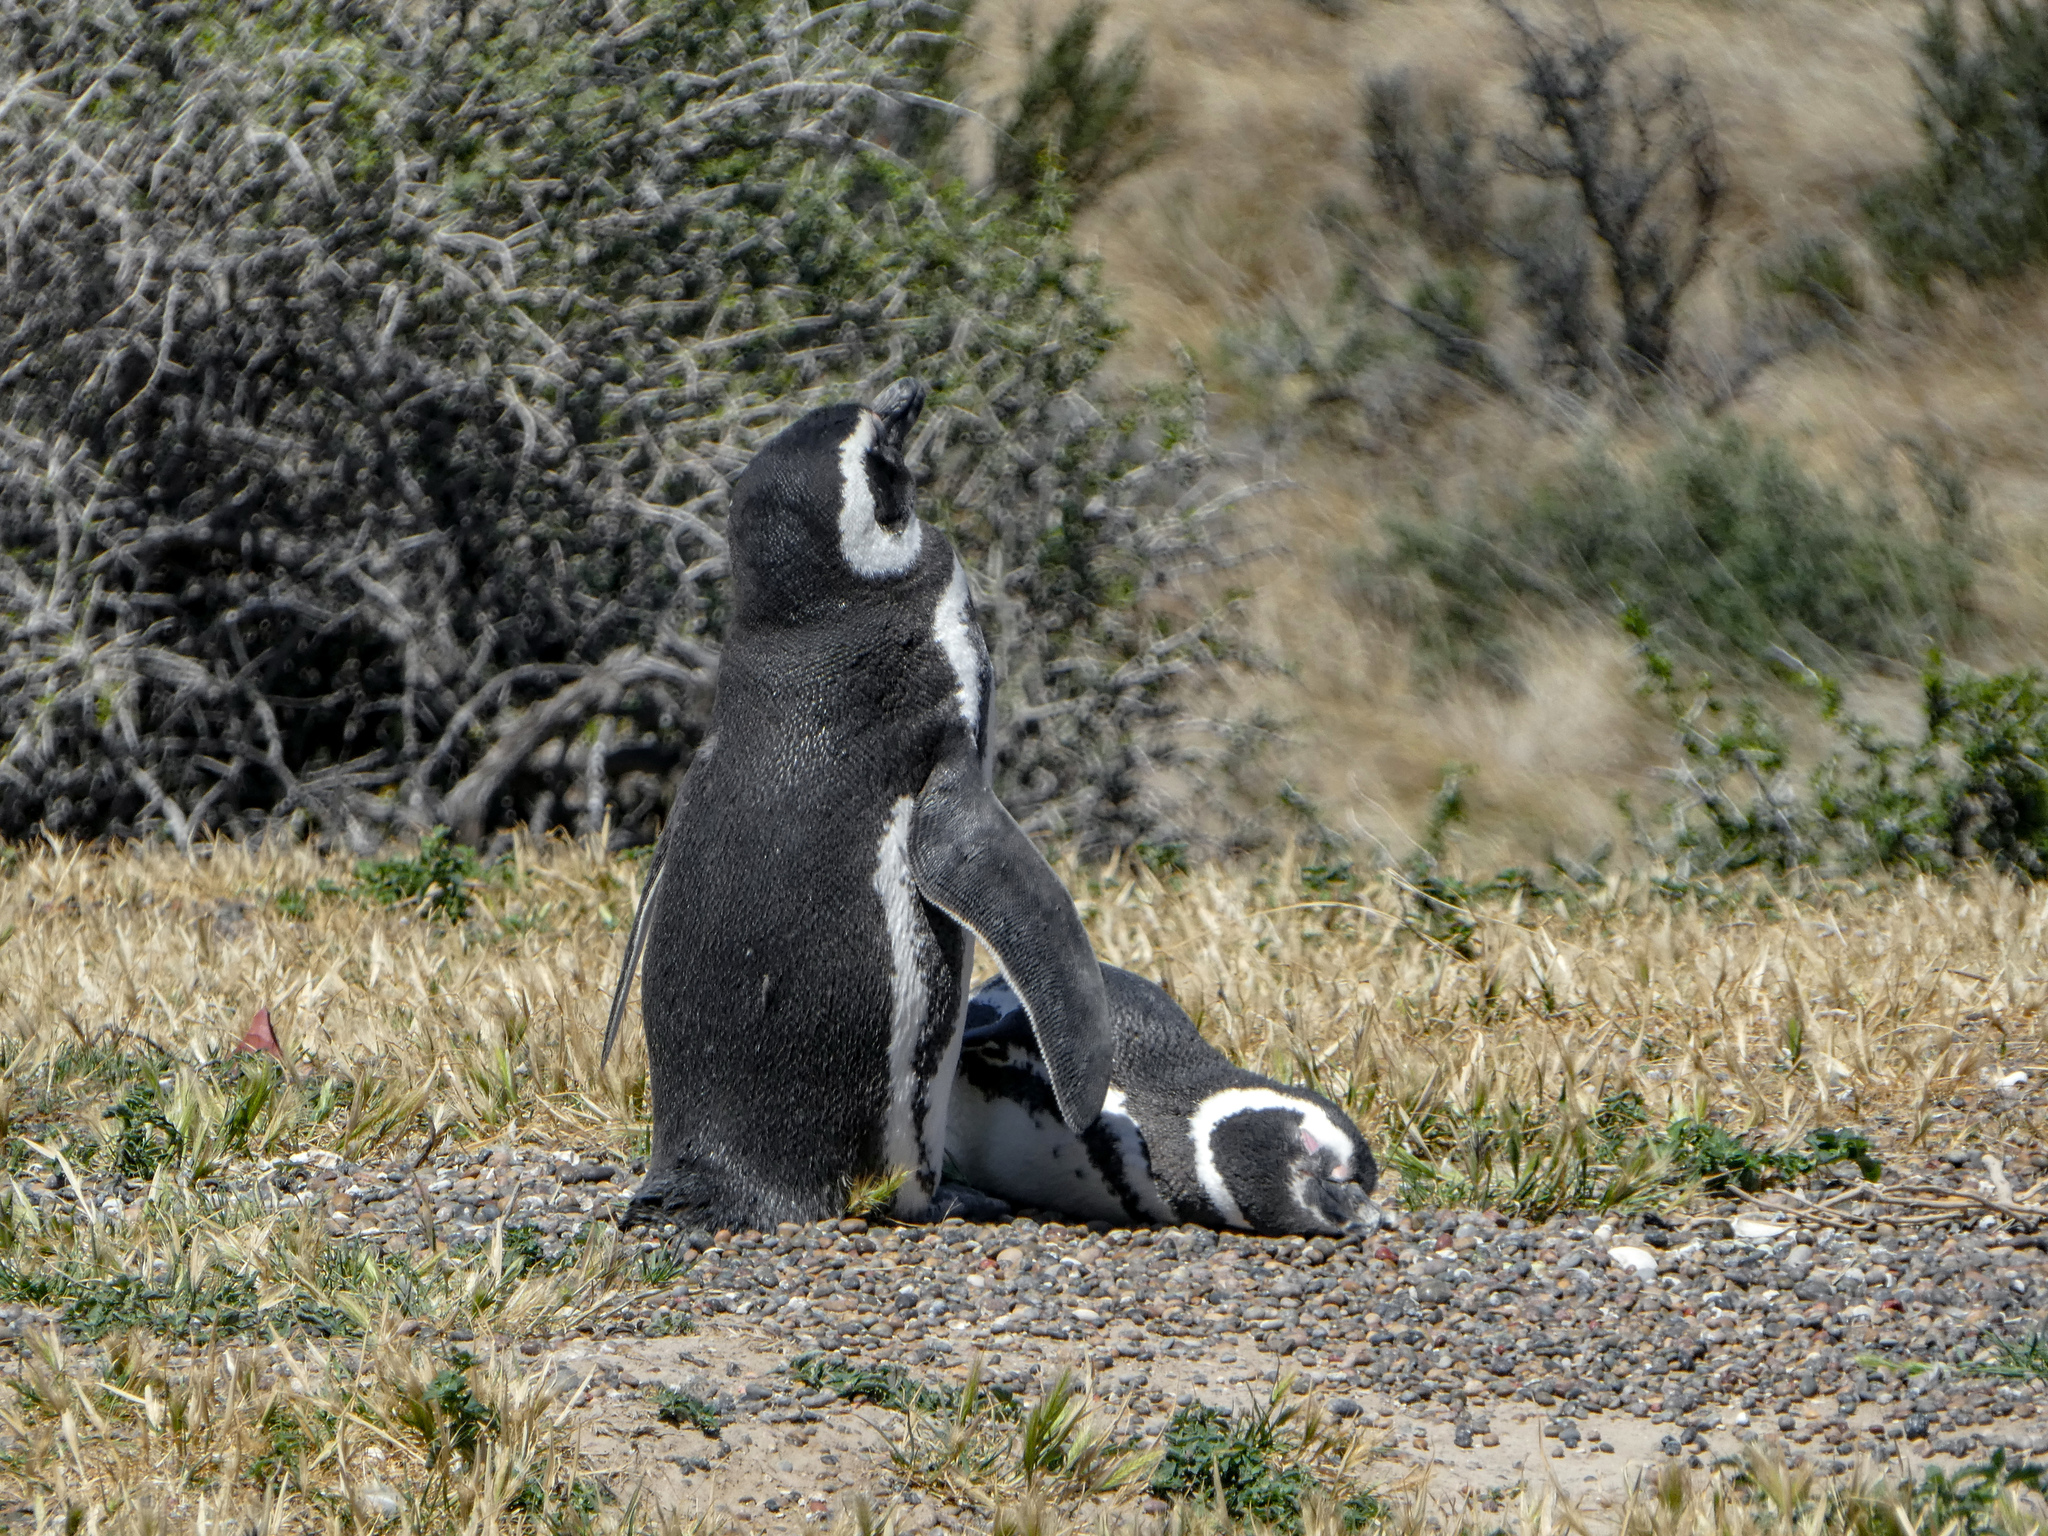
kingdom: Animalia
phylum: Chordata
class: Aves
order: Sphenisciformes
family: Spheniscidae
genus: Spheniscus
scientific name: Spheniscus magellanicus
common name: Magellanic penguin
